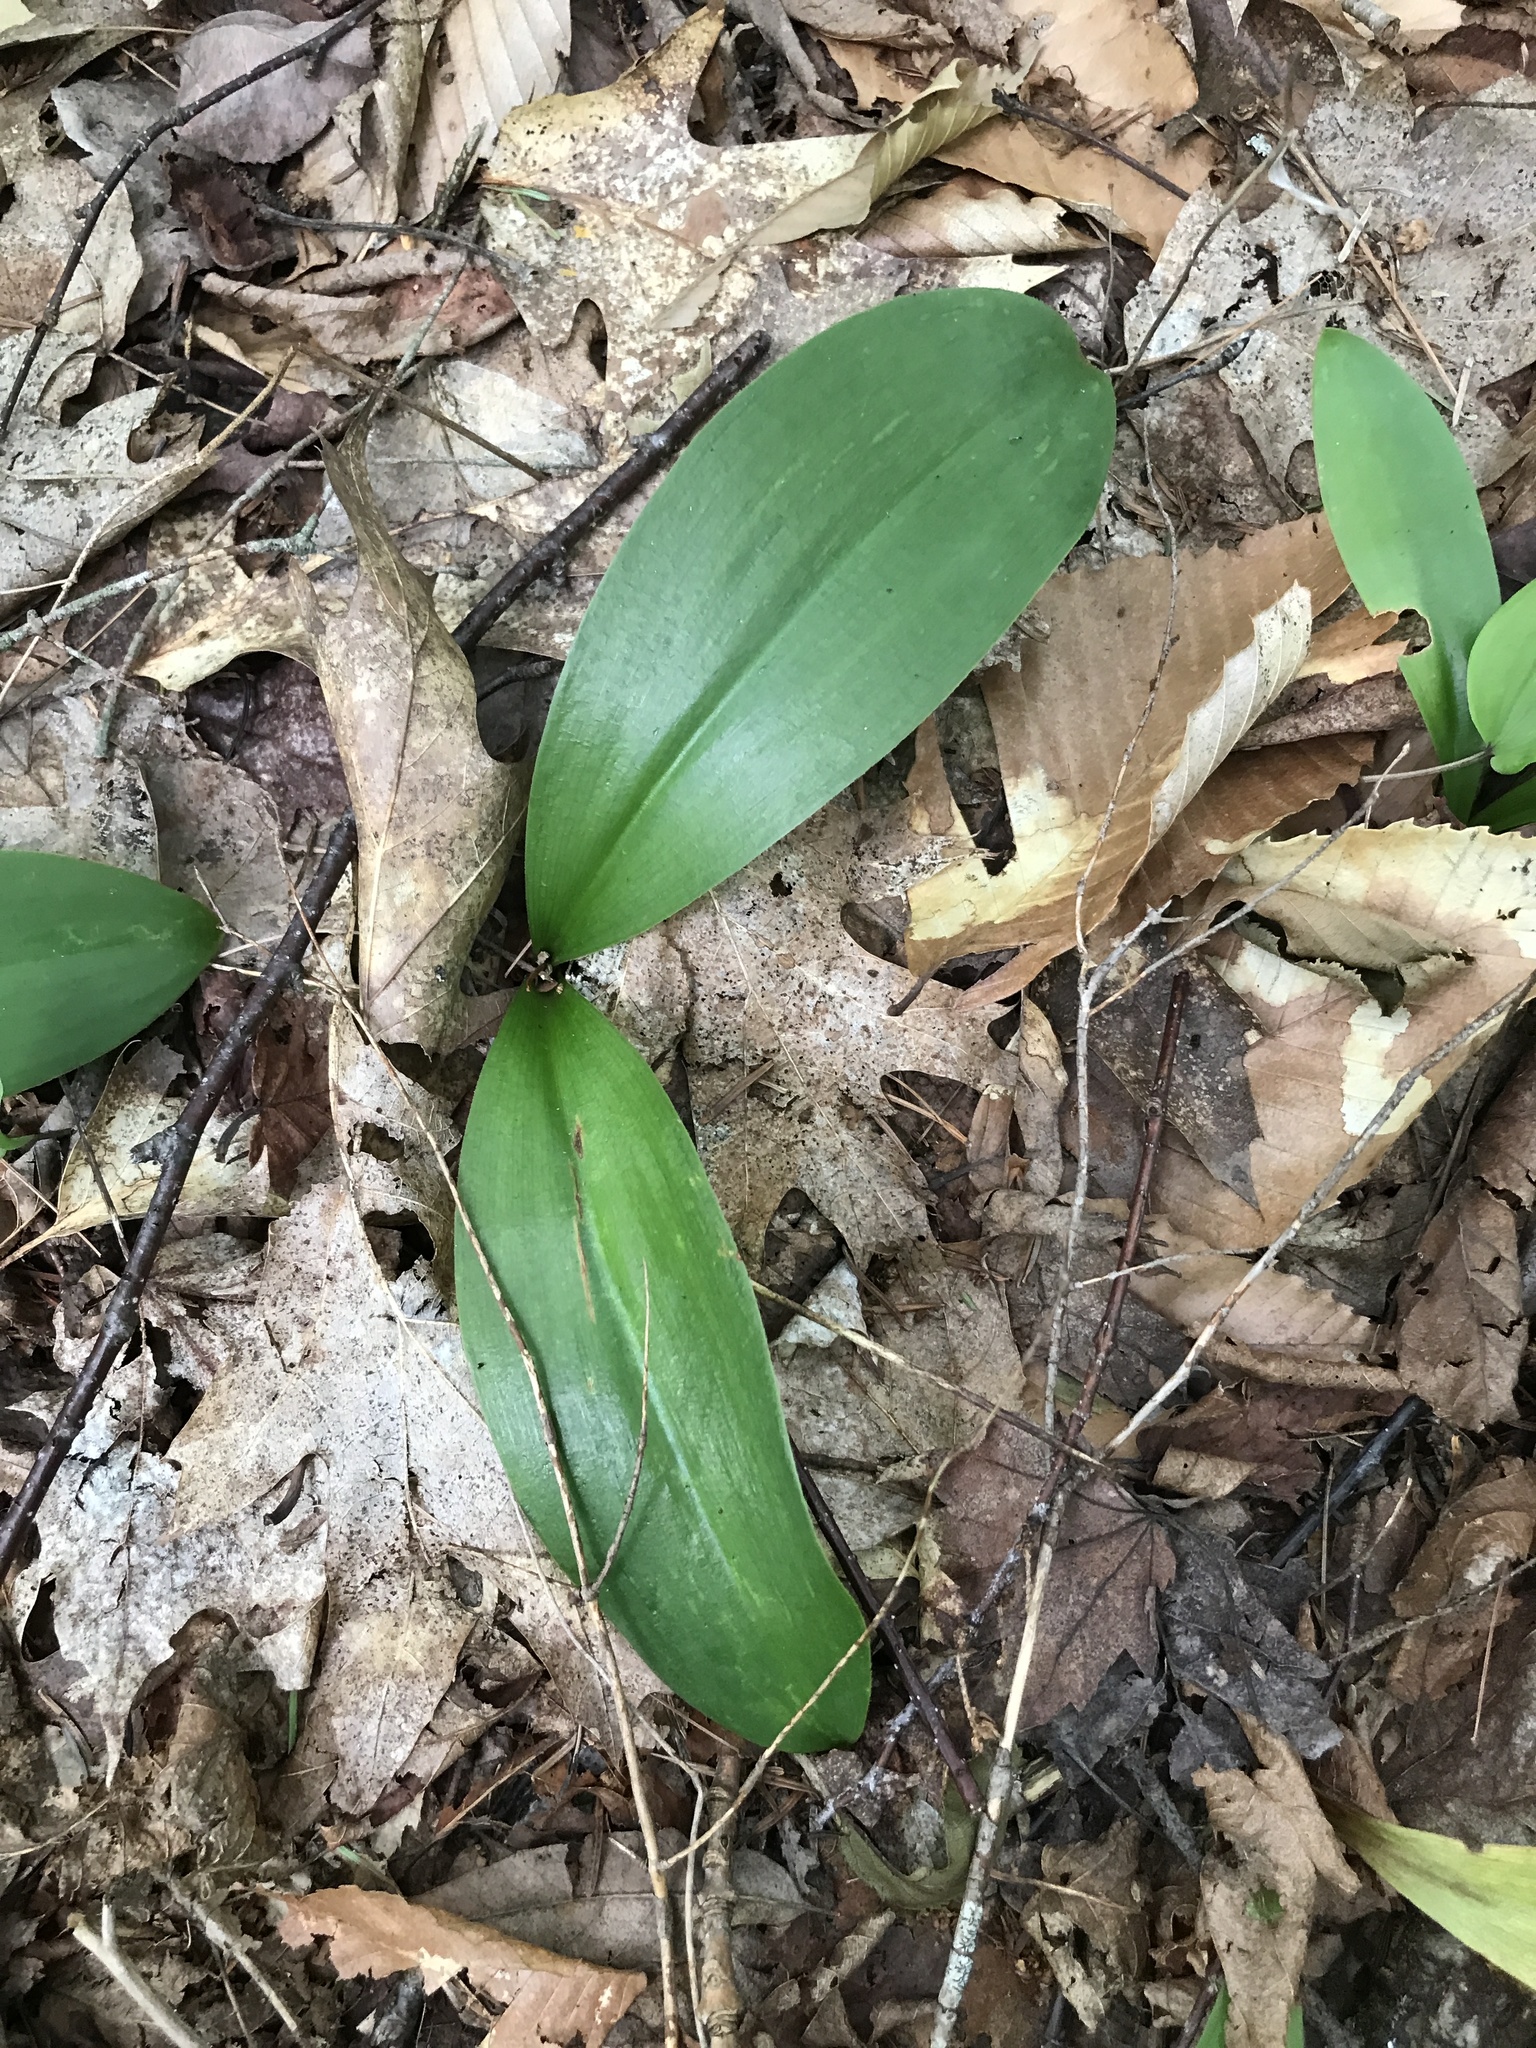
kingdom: Plantae
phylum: Tracheophyta
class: Liliopsida
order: Liliales
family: Liliaceae
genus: Clintonia
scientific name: Clintonia borealis
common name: Yellow clintonia
